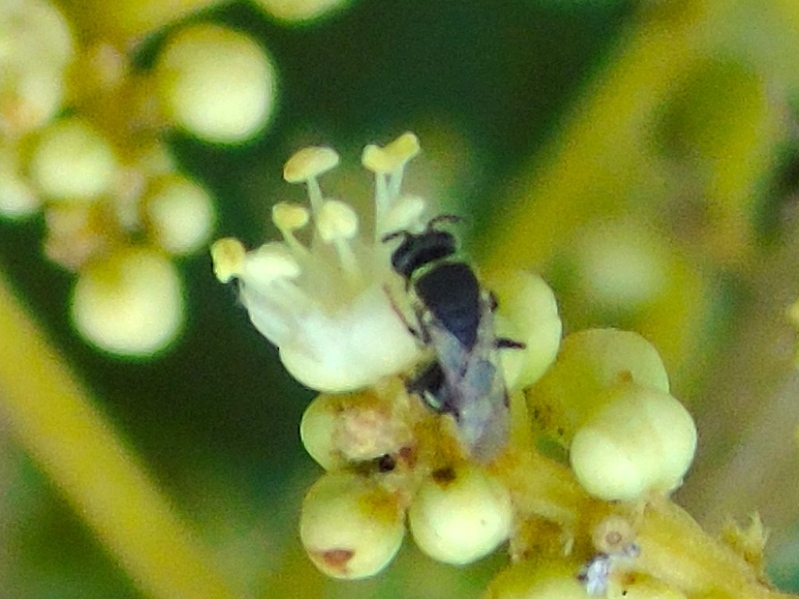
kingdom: Animalia
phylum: Arthropoda
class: Insecta
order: Hymenoptera
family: Colletidae
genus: Hylaeus
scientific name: Hylaeus
